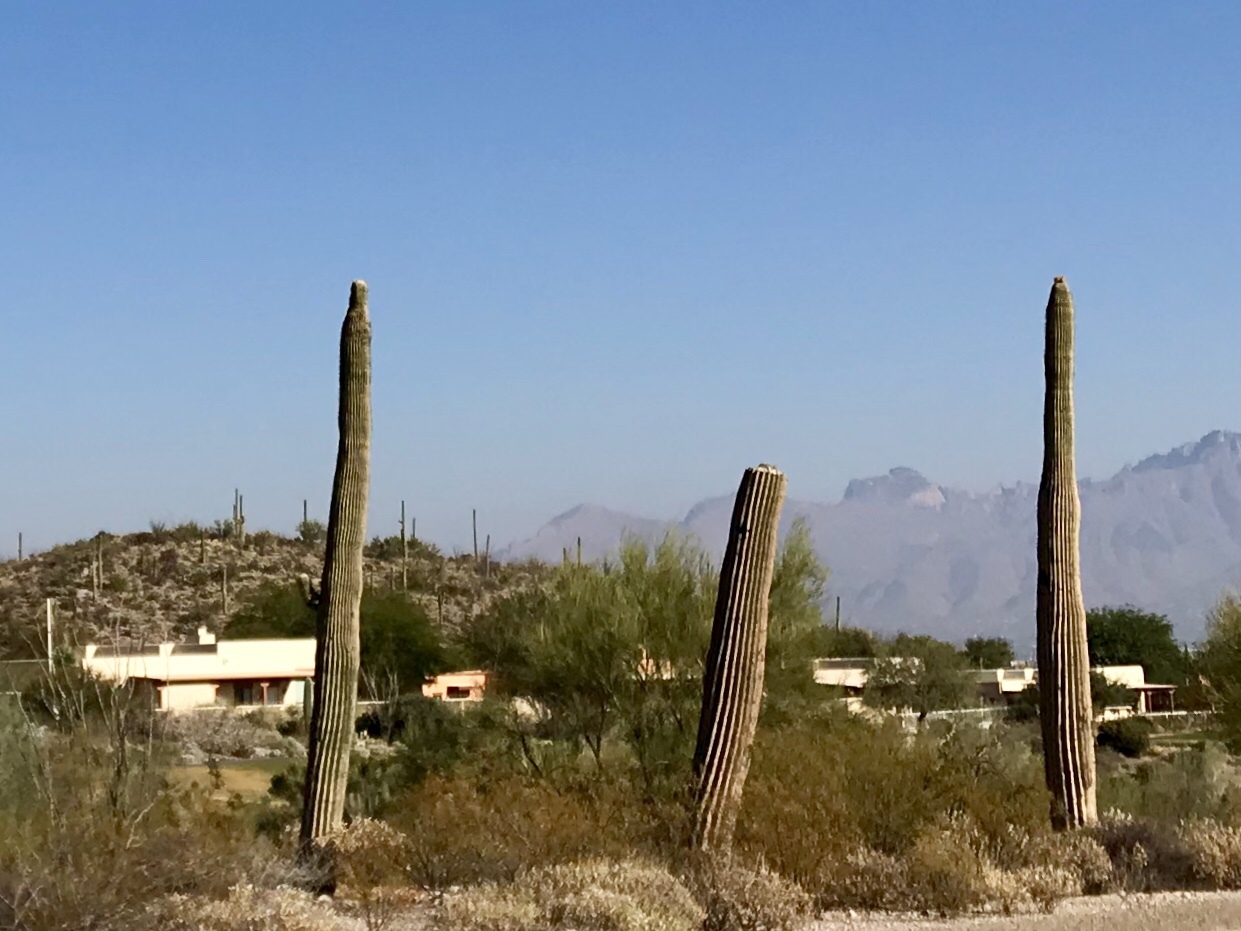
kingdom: Plantae
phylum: Tracheophyta
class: Magnoliopsida
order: Caryophyllales
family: Cactaceae
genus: Carnegiea
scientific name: Carnegiea gigantea
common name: Saguaro
